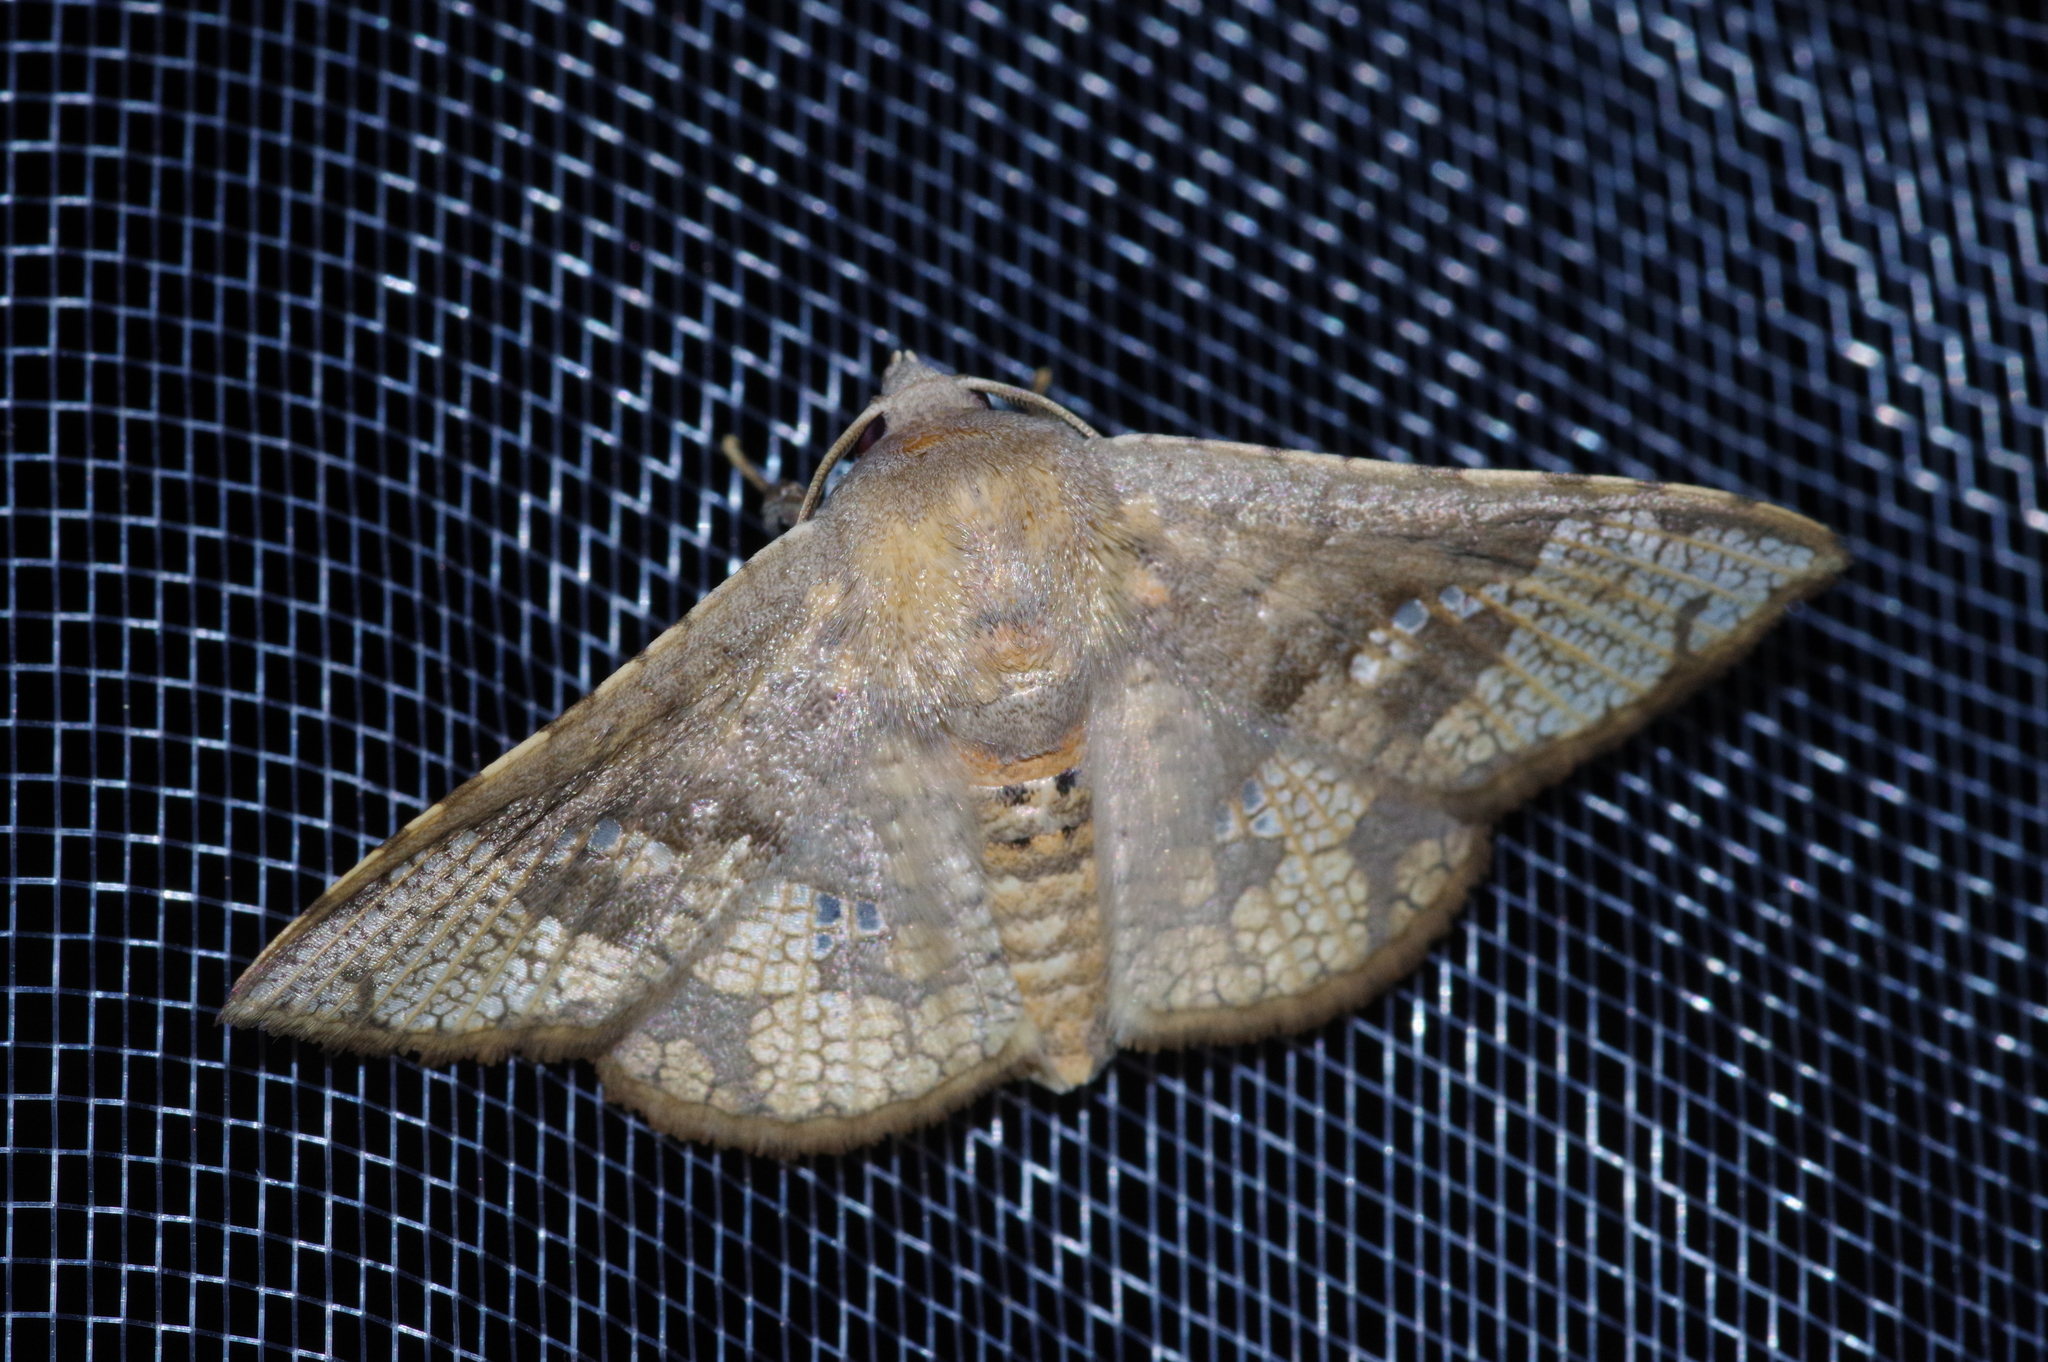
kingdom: Animalia
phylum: Arthropoda
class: Insecta
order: Lepidoptera
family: Thyrididae
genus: Canaea
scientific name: Canaea ryukyuensis
